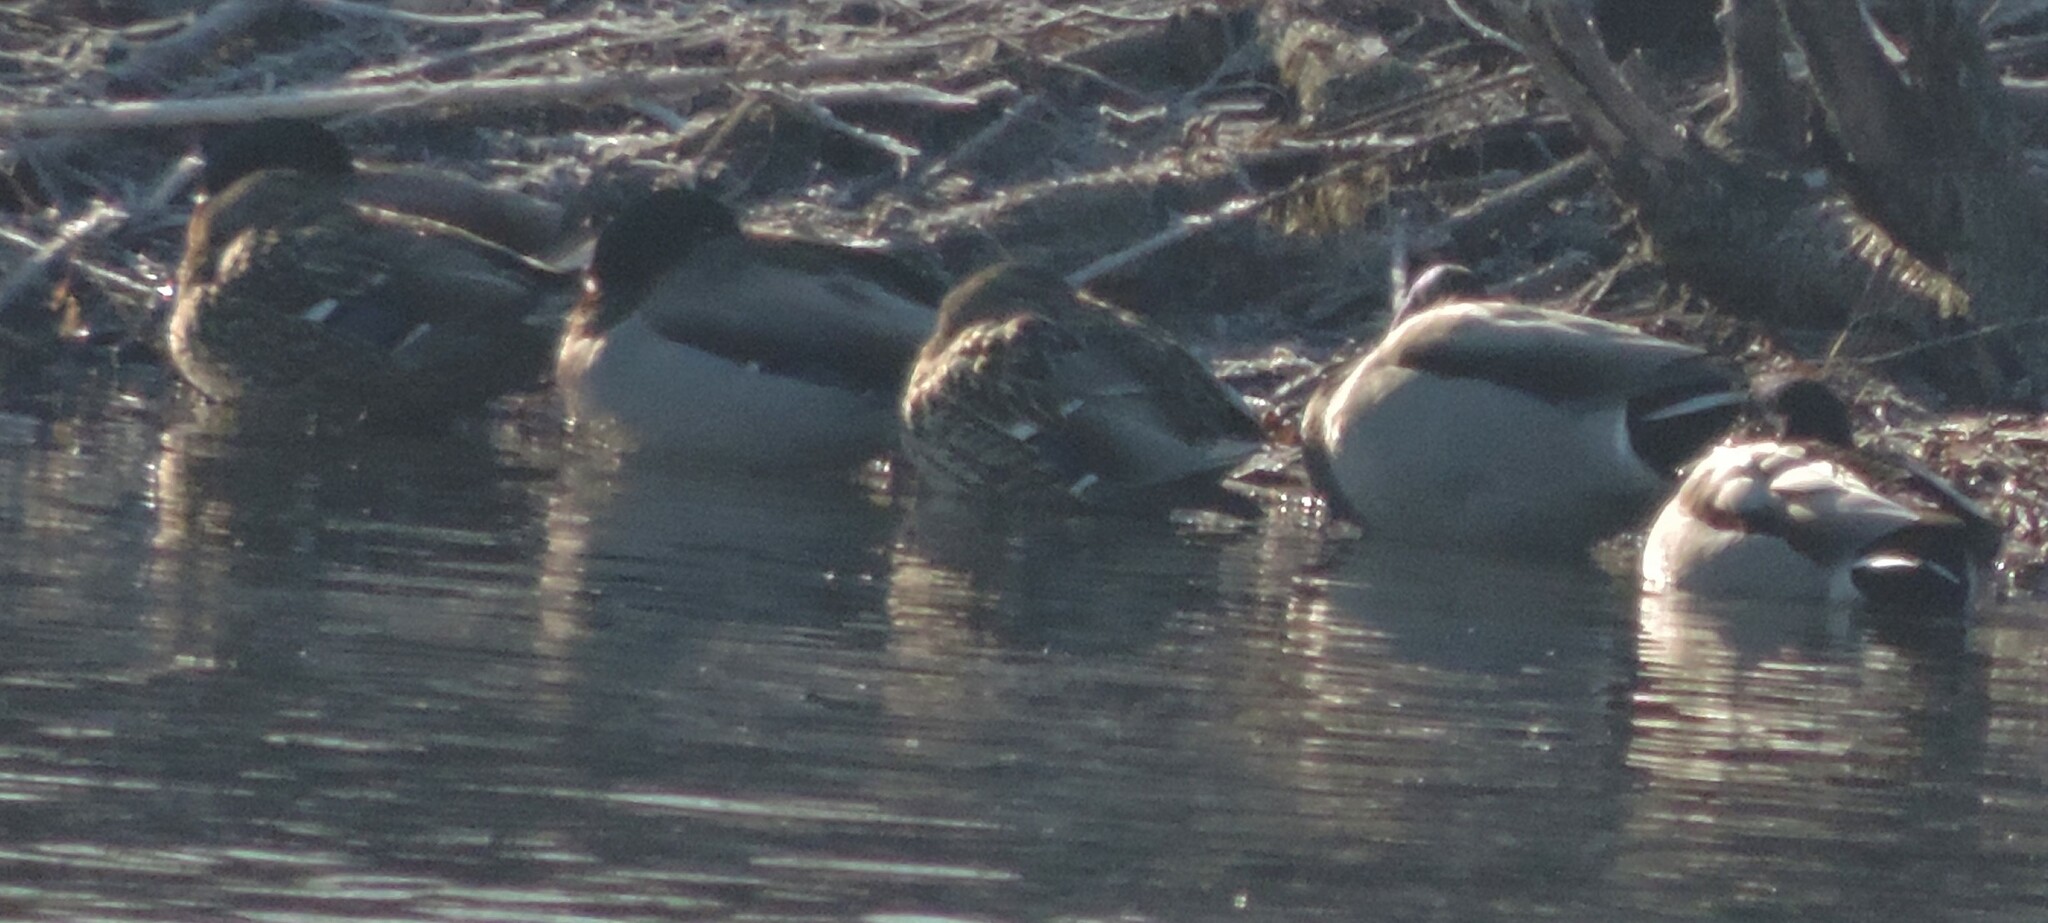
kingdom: Animalia
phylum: Chordata
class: Aves
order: Anseriformes
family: Anatidae
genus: Anas
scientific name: Anas platyrhynchos
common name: Mallard
